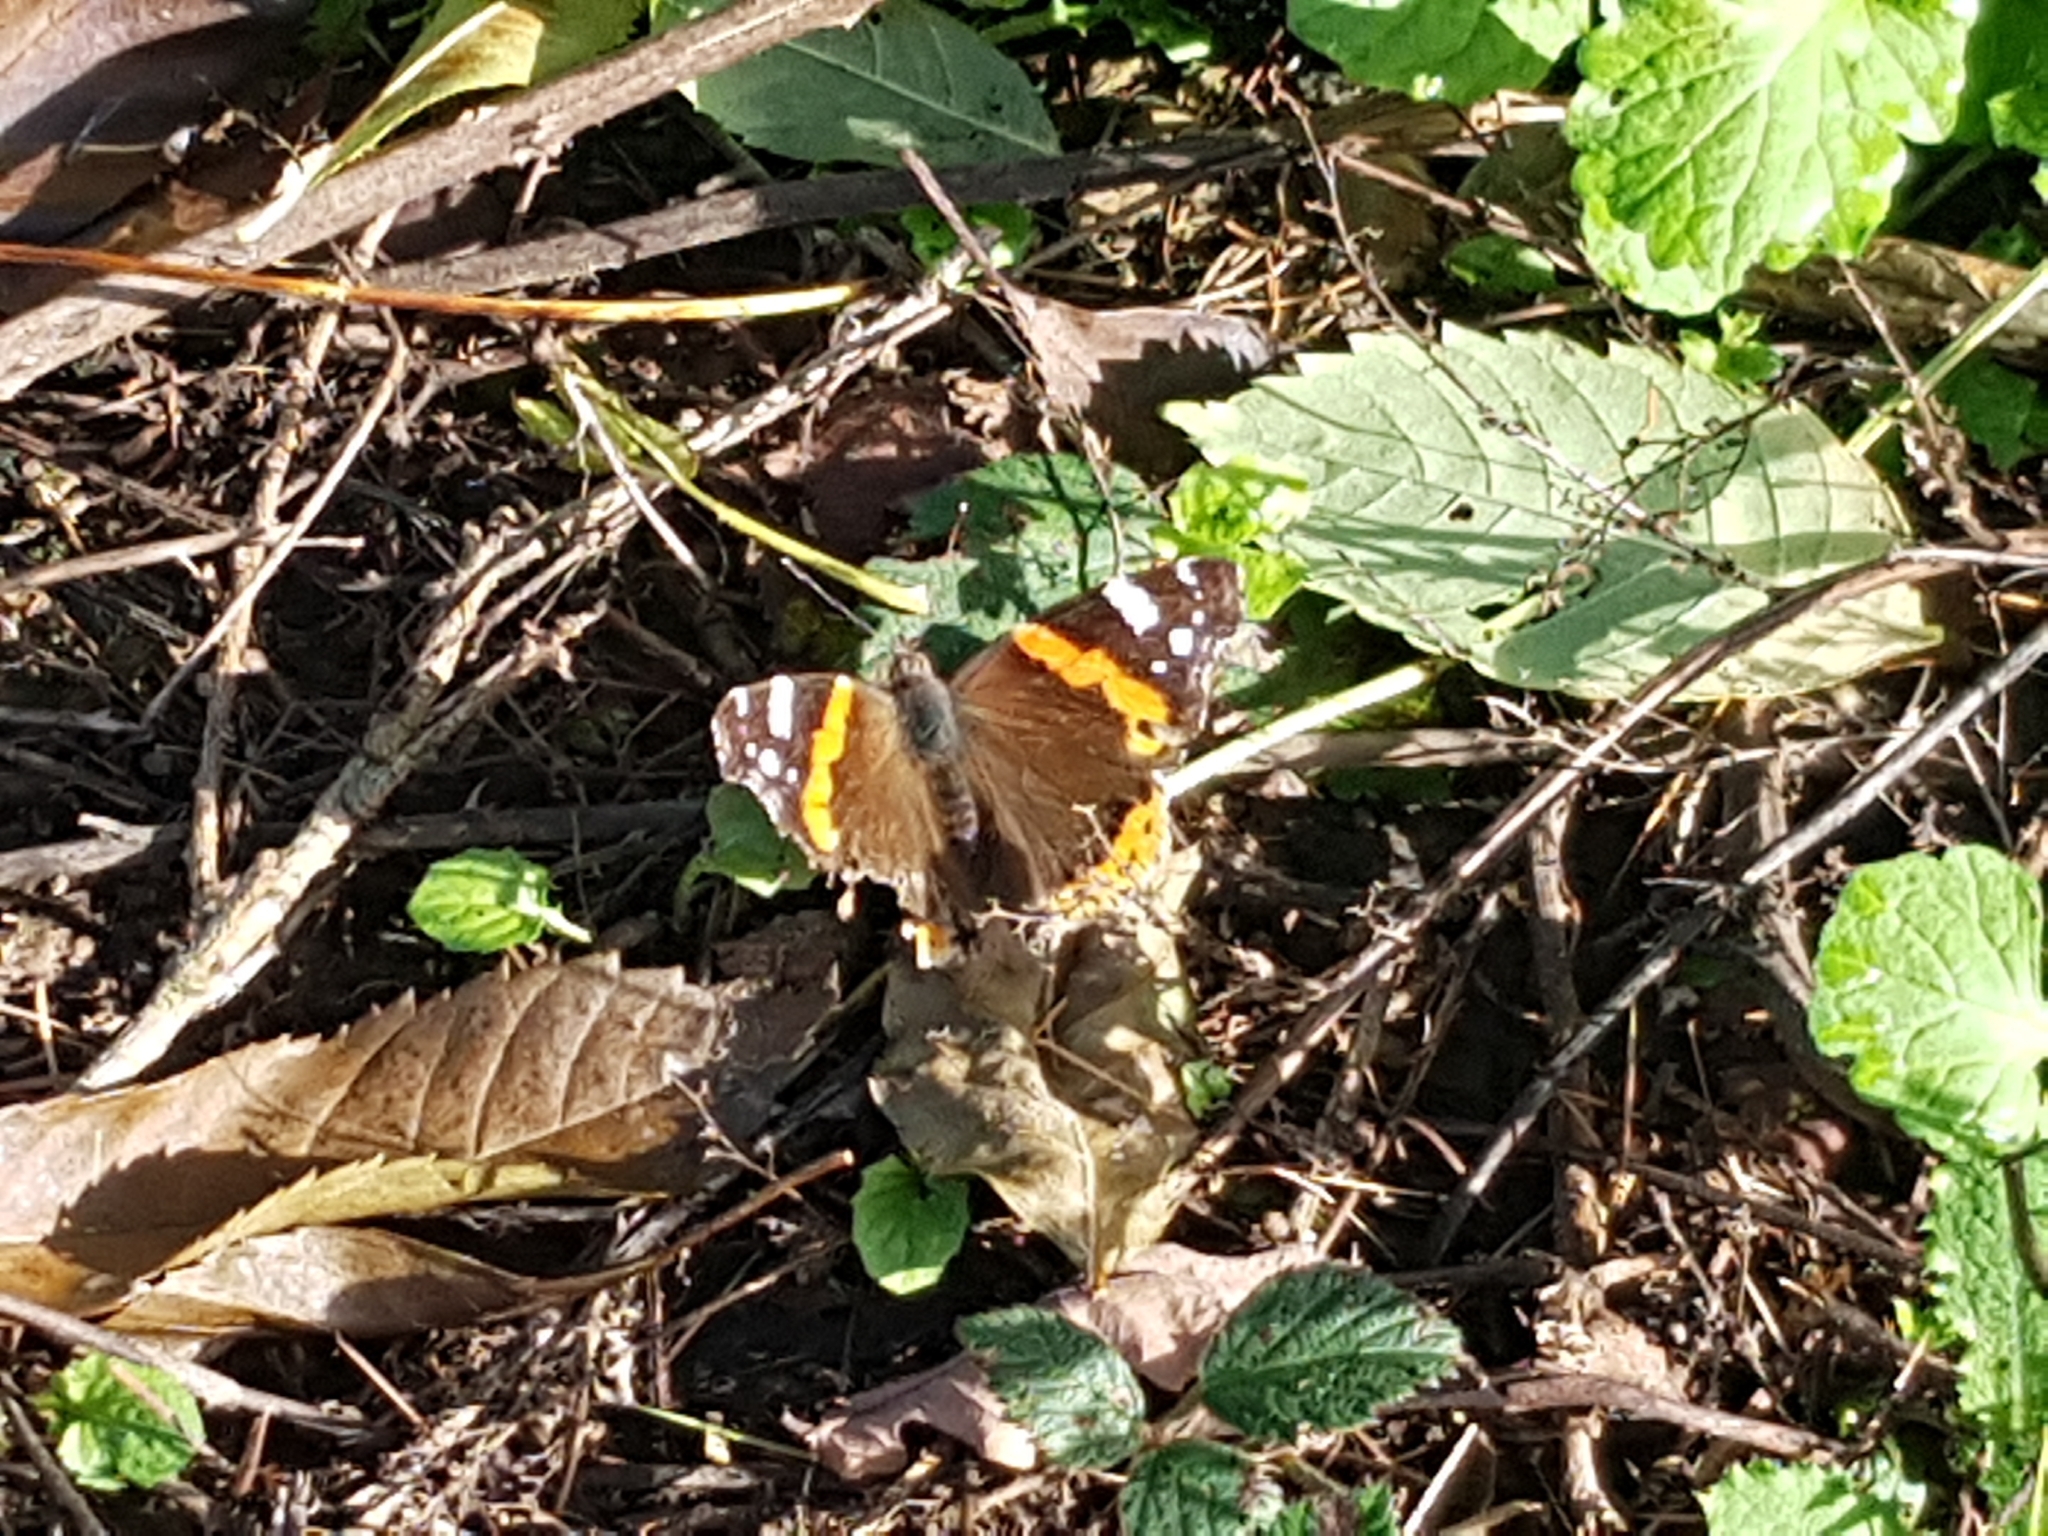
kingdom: Animalia
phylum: Arthropoda
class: Insecta
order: Lepidoptera
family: Nymphalidae
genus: Vanessa
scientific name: Vanessa atalanta
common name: Red admiral
